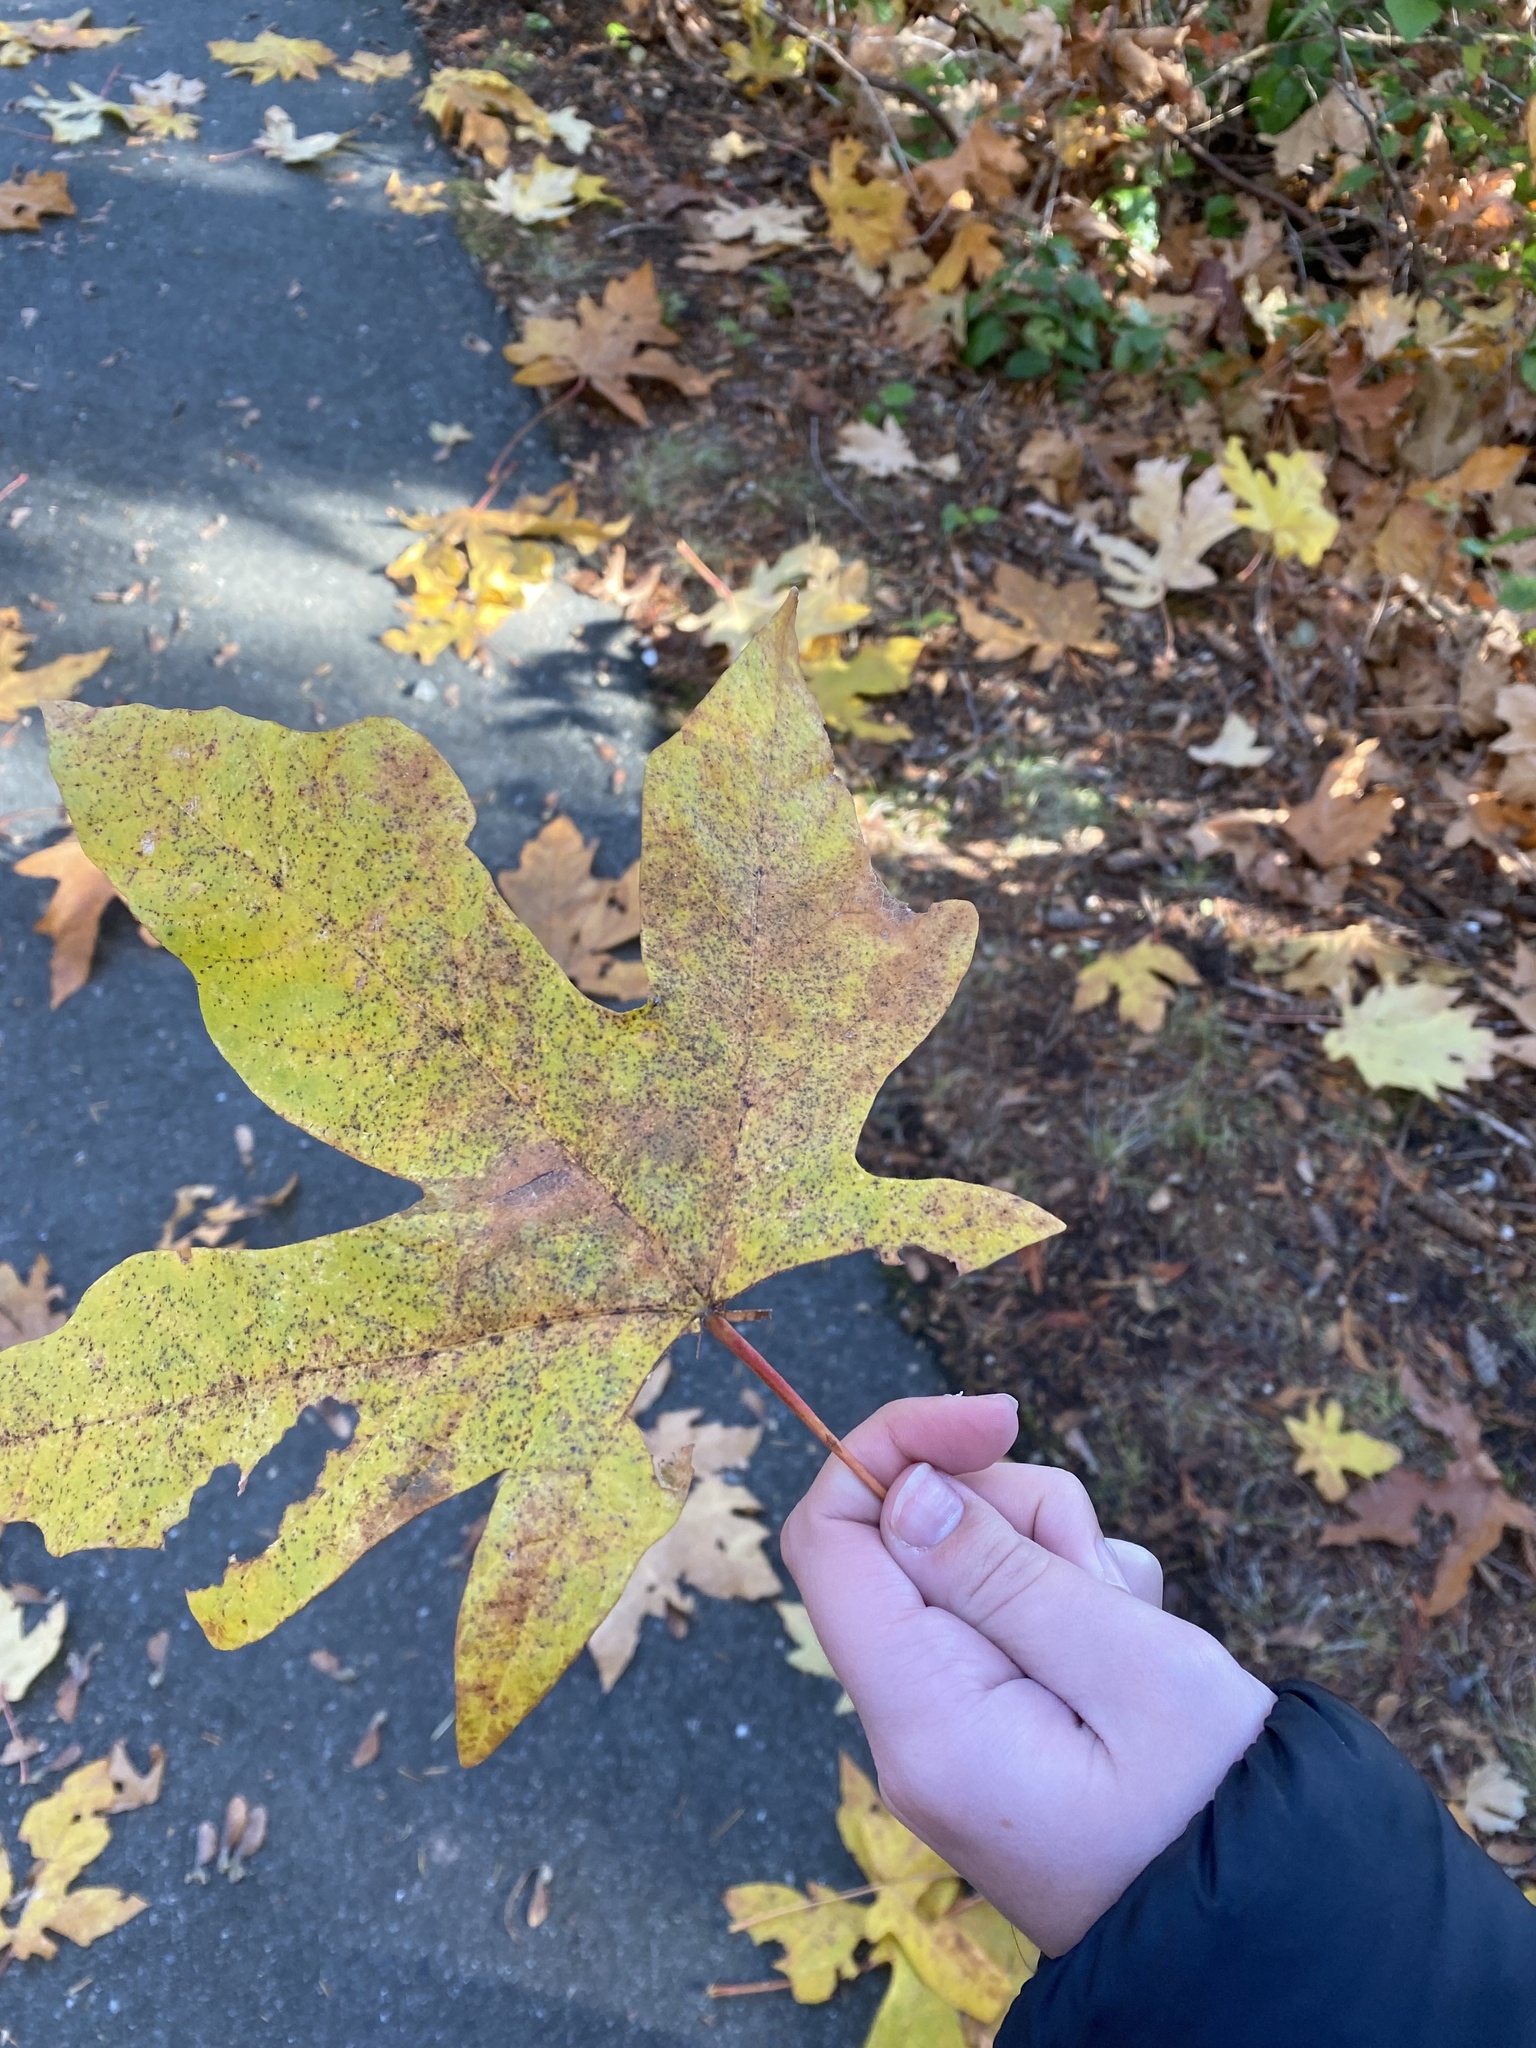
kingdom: Plantae
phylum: Tracheophyta
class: Magnoliopsida
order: Sapindales
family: Sapindaceae
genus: Acer
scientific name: Acer macrophyllum
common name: Oregon maple
